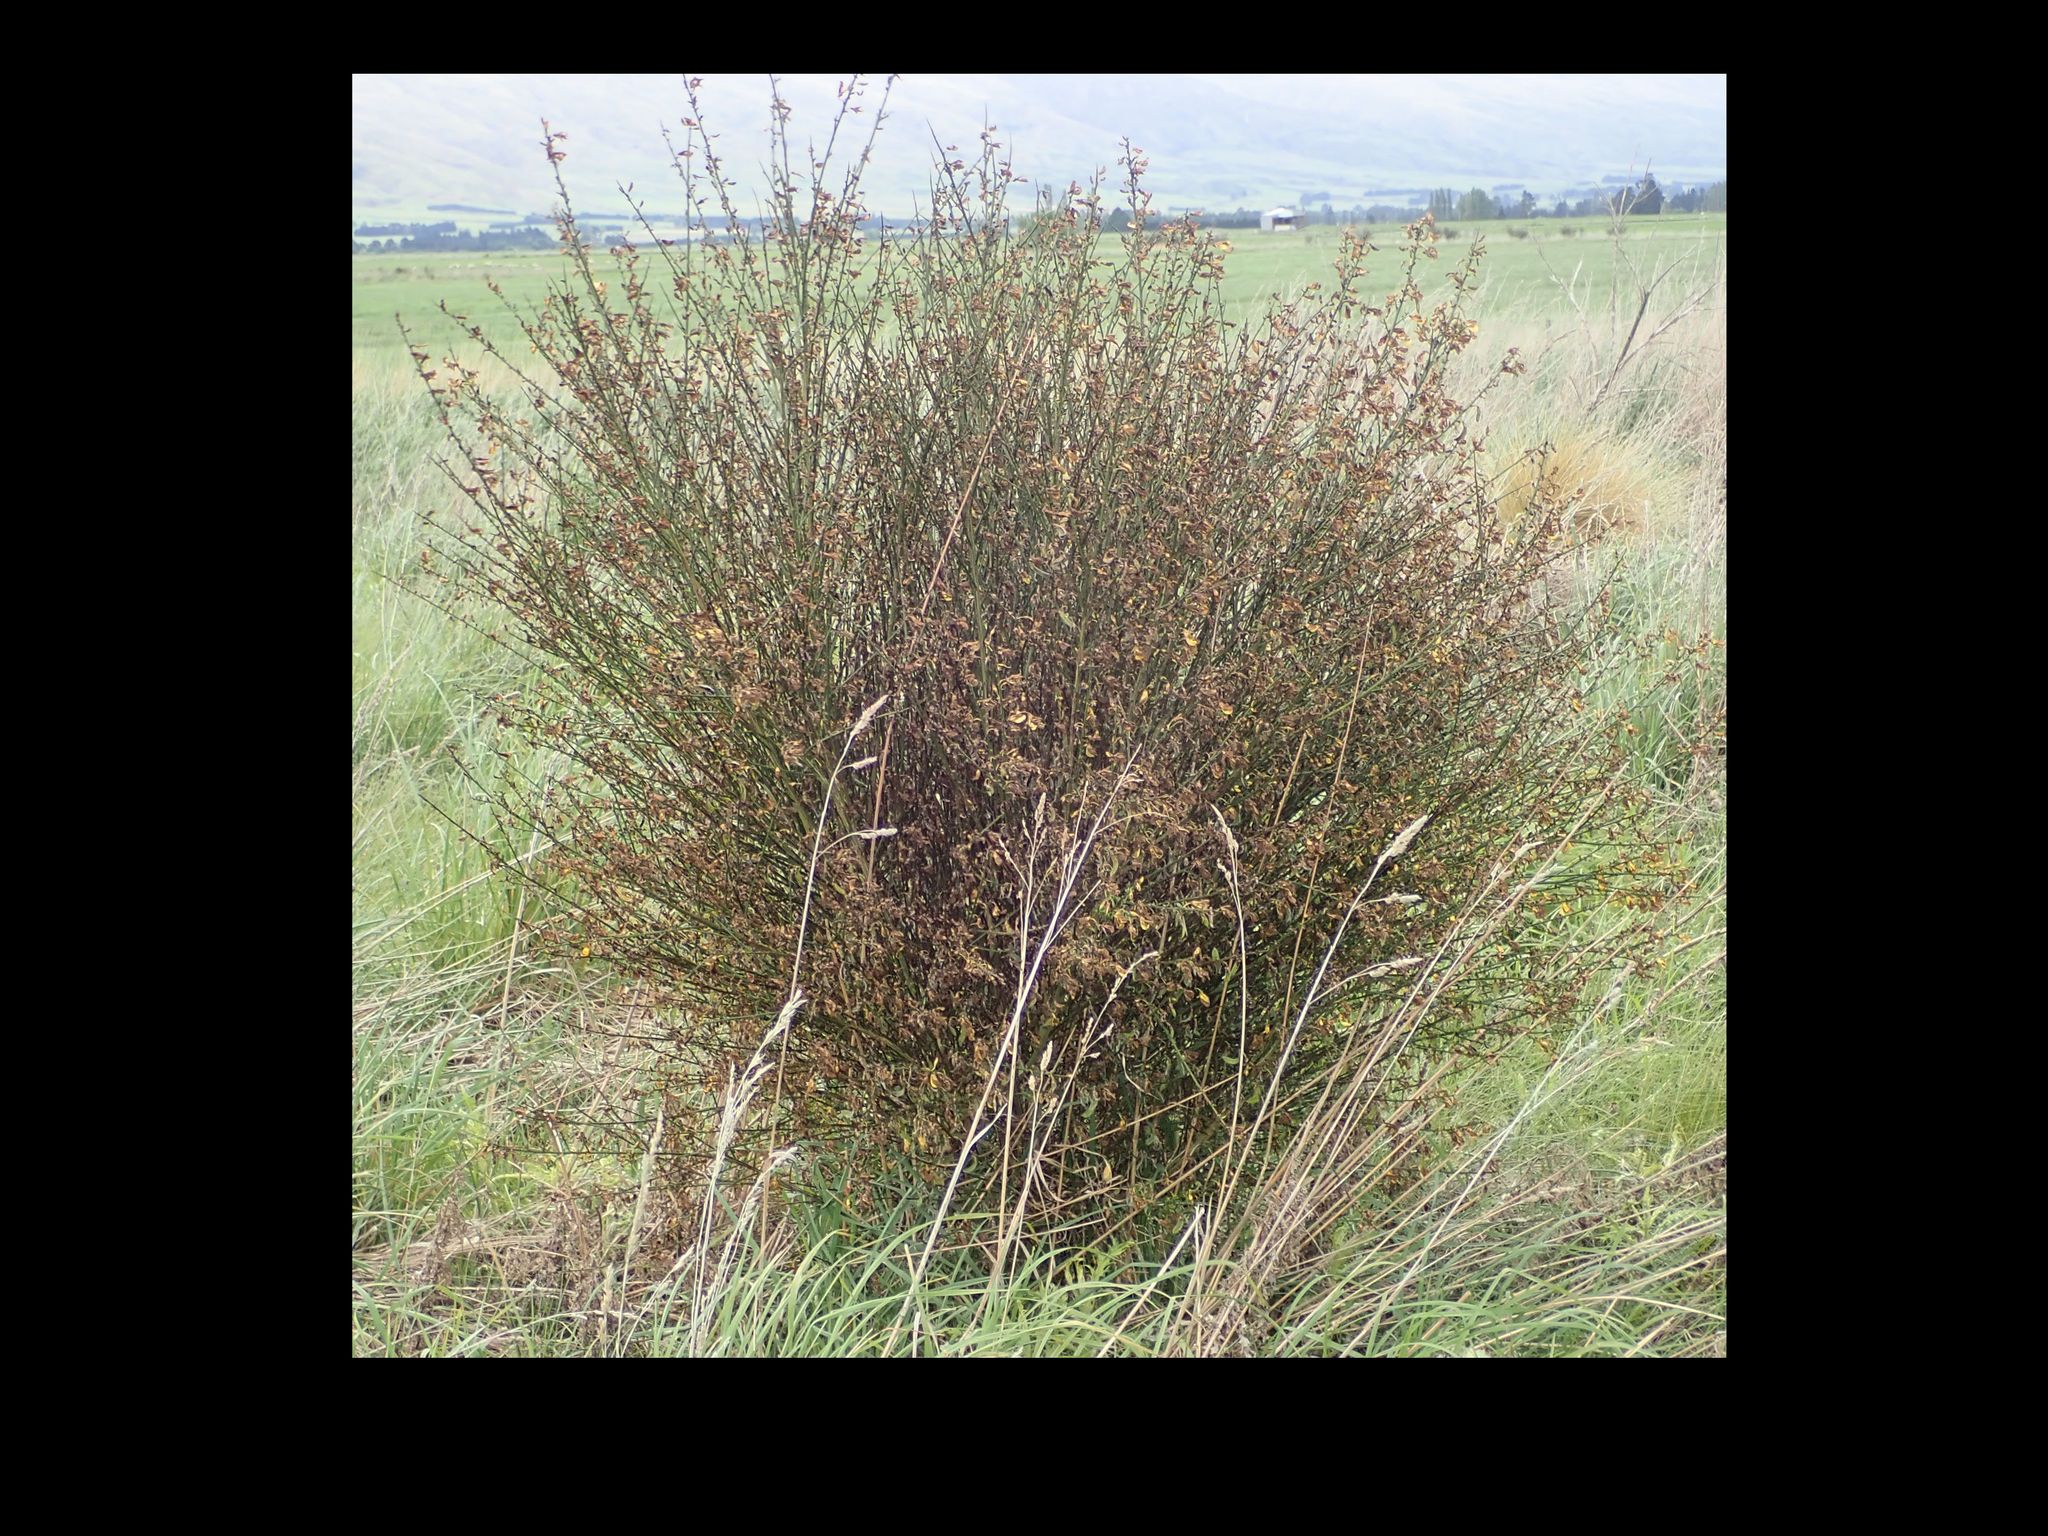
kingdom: Plantae
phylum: Tracheophyta
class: Magnoliopsida
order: Fabales
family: Fabaceae
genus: Cytisus
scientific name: Cytisus scoparius
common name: Scotch broom
